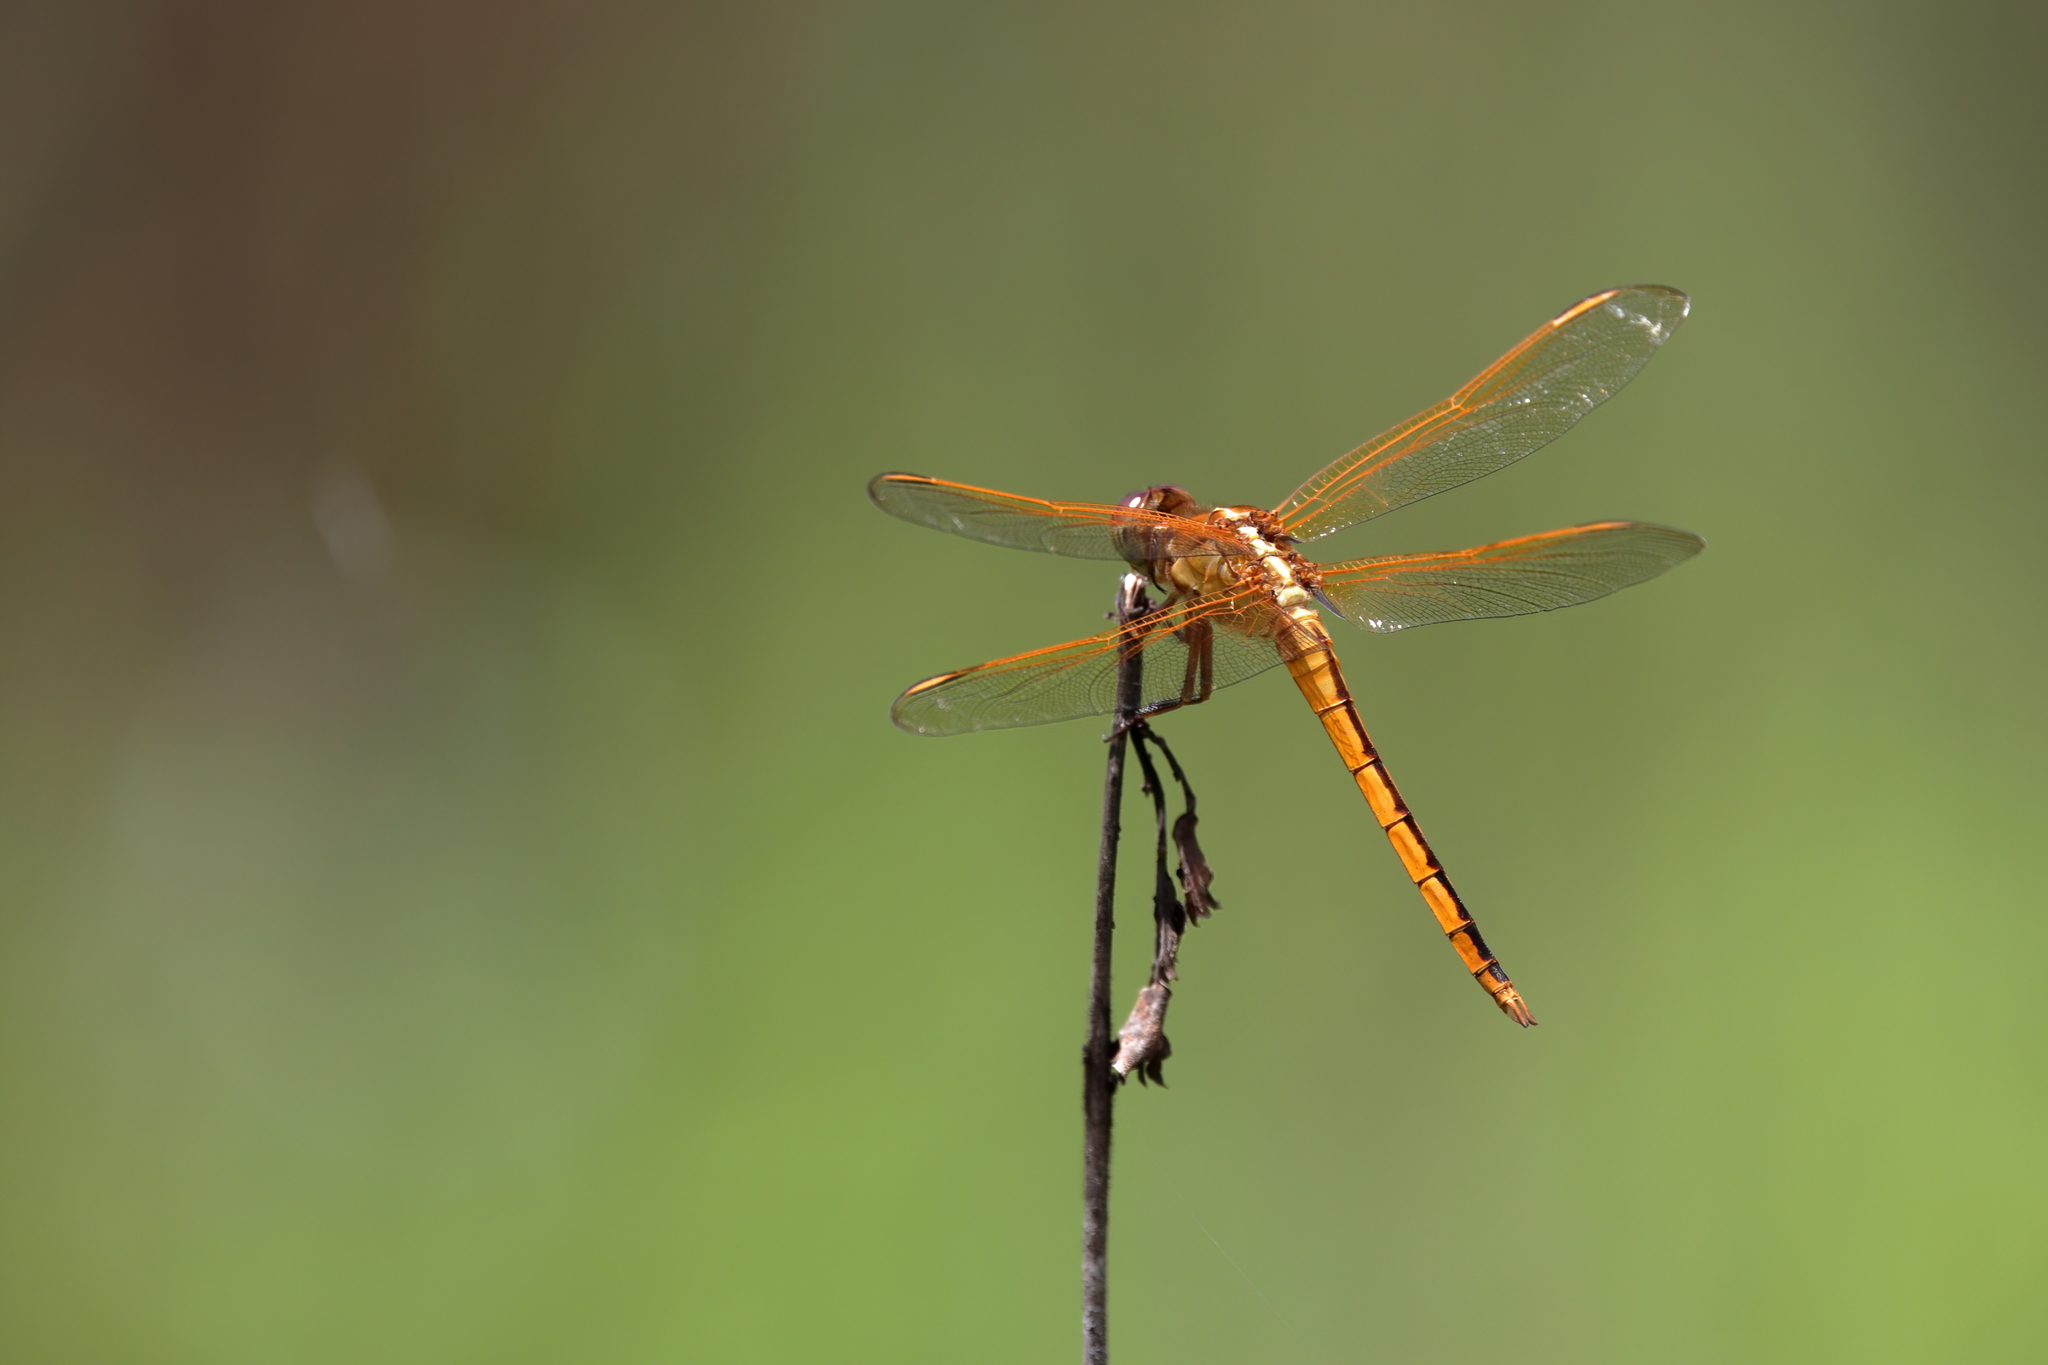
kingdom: Animalia
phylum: Arthropoda
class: Insecta
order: Odonata
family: Libellulidae
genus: Libellula
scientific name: Libellula needhami
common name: Needham's skimmer
